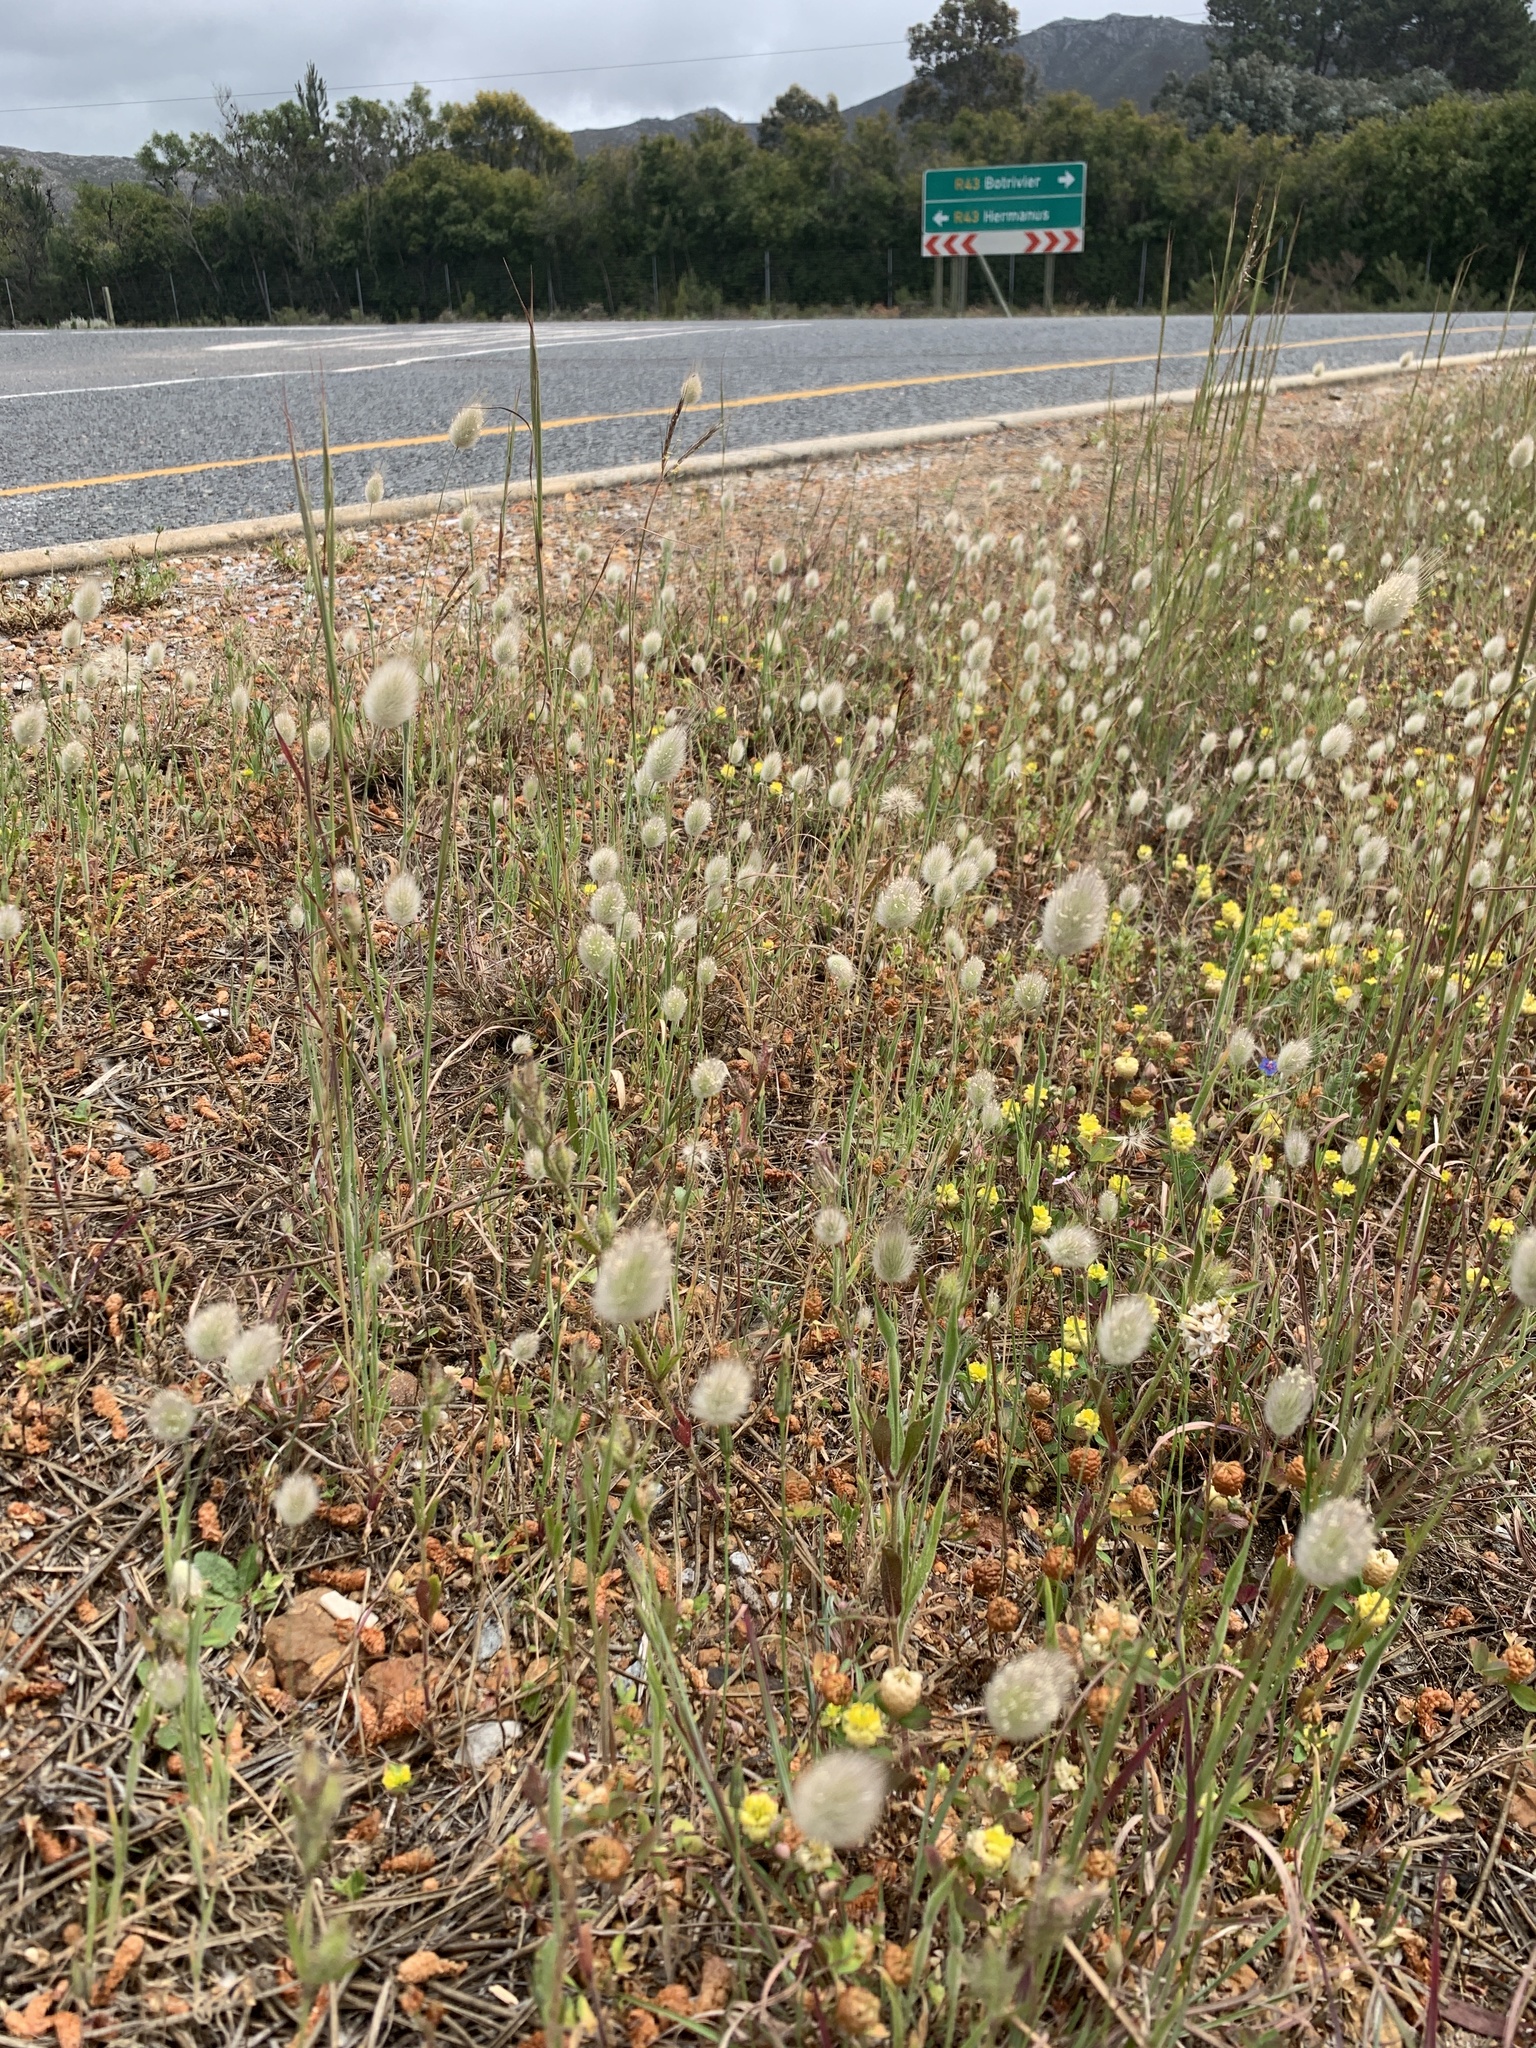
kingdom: Plantae
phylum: Tracheophyta
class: Liliopsida
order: Poales
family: Poaceae
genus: Lagurus
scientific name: Lagurus ovatus
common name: Hare's-tail
